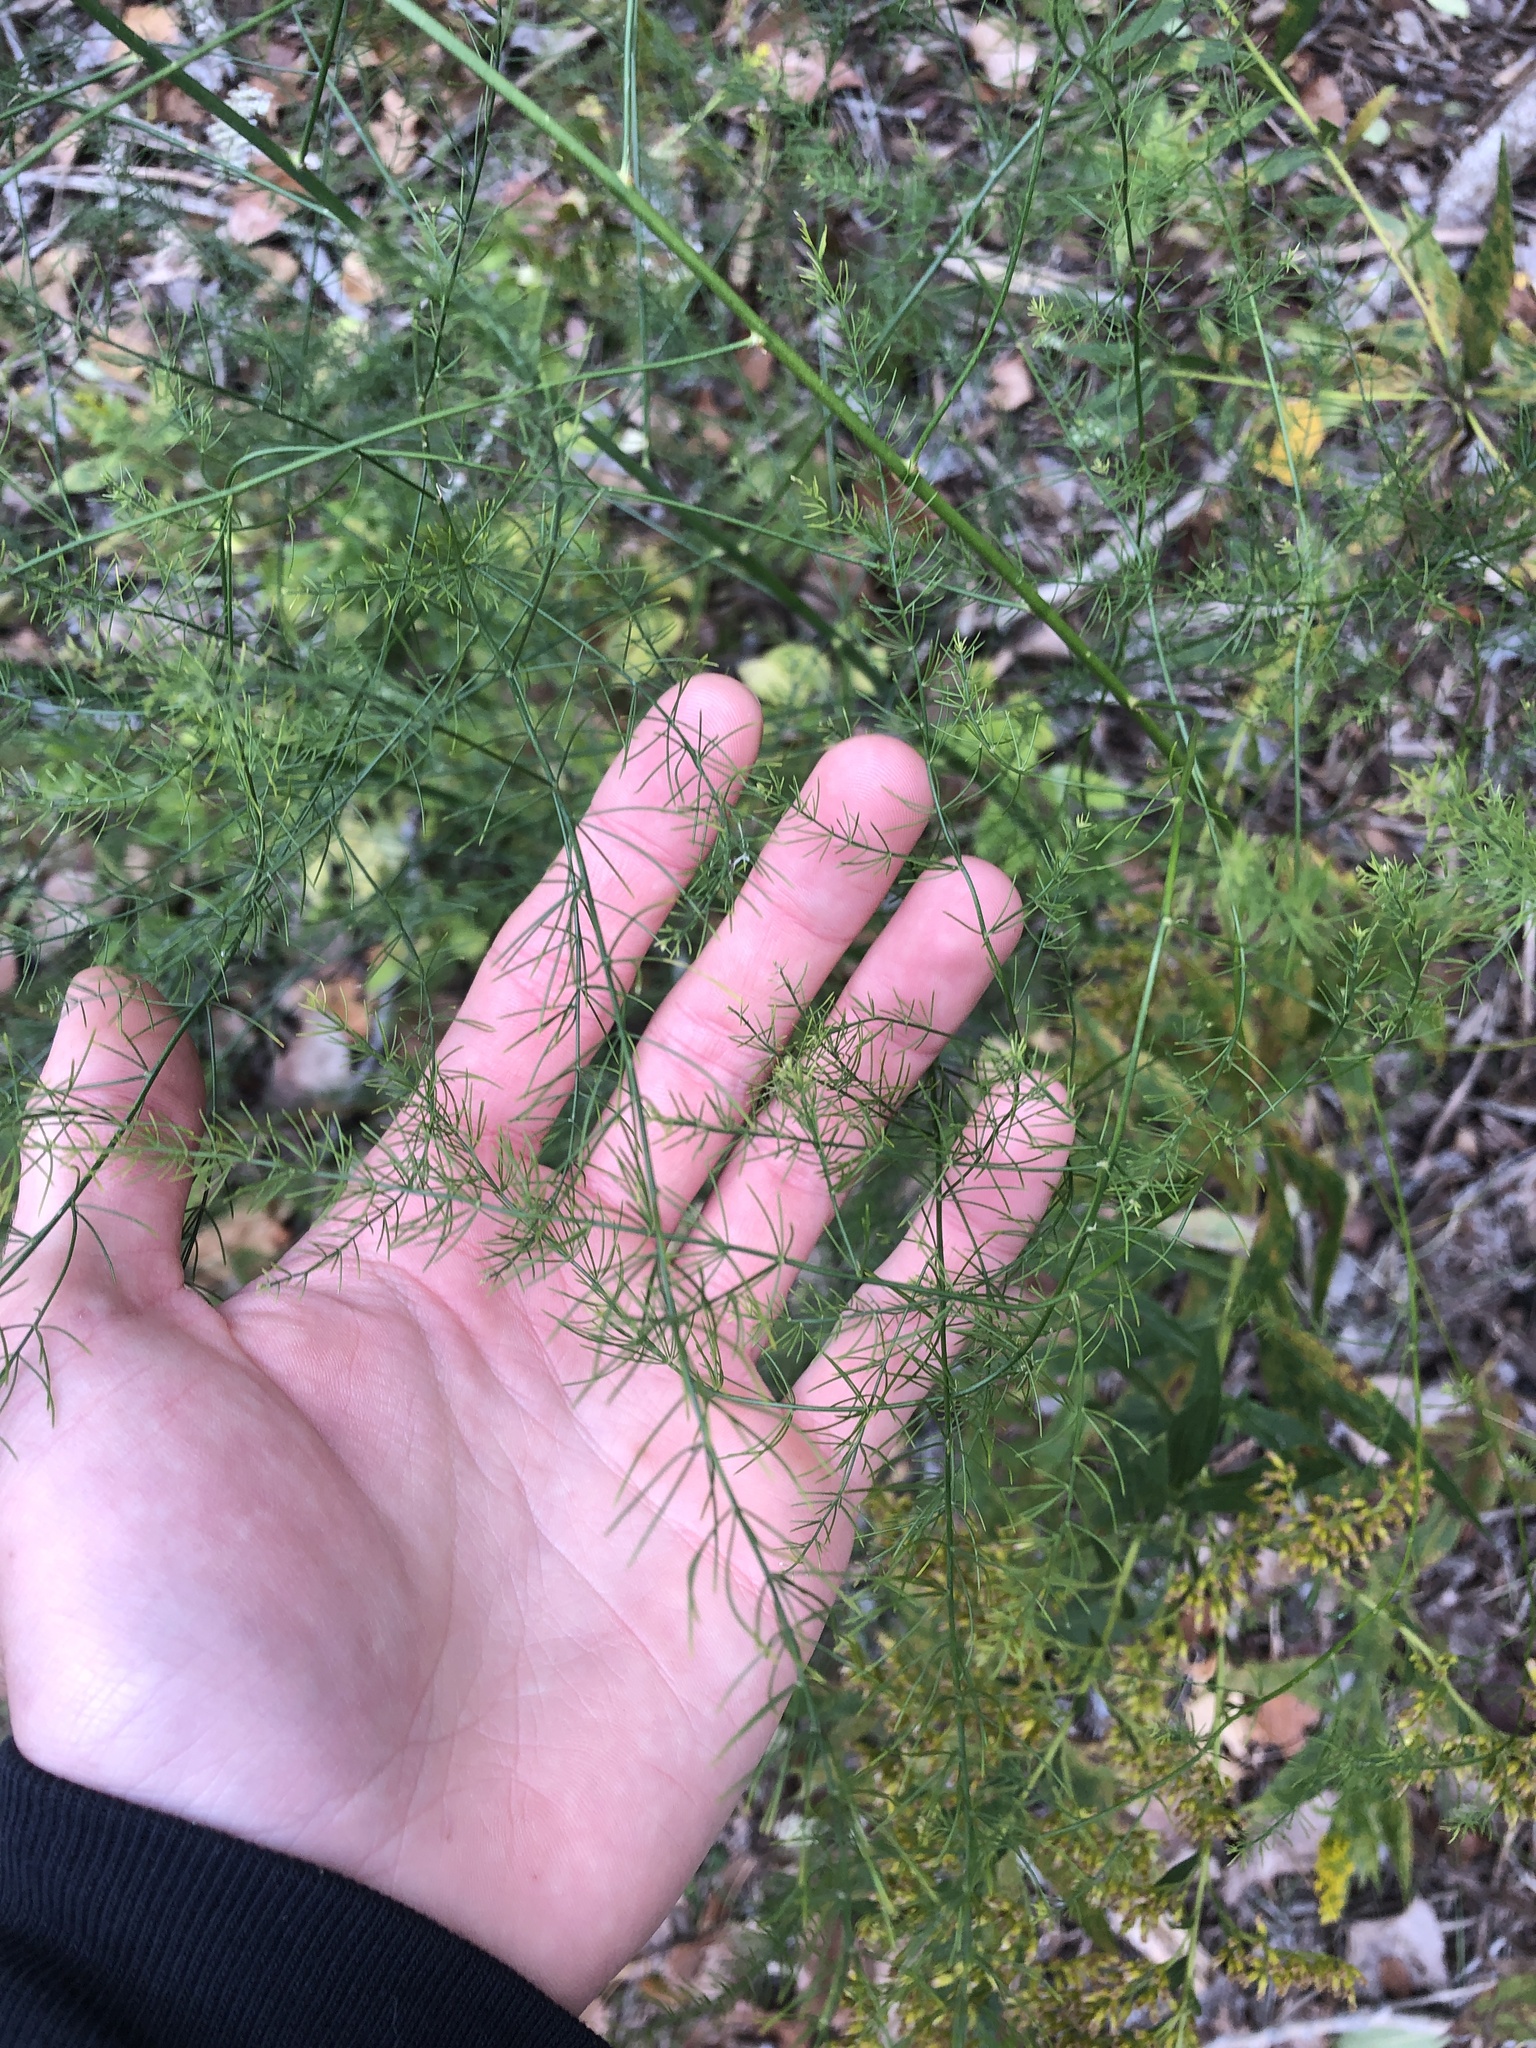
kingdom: Plantae
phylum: Tracheophyta
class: Liliopsida
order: Asparagales
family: Asparagaceae
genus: Asparagus
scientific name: Asparagus officinalis
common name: Garden asparagus
